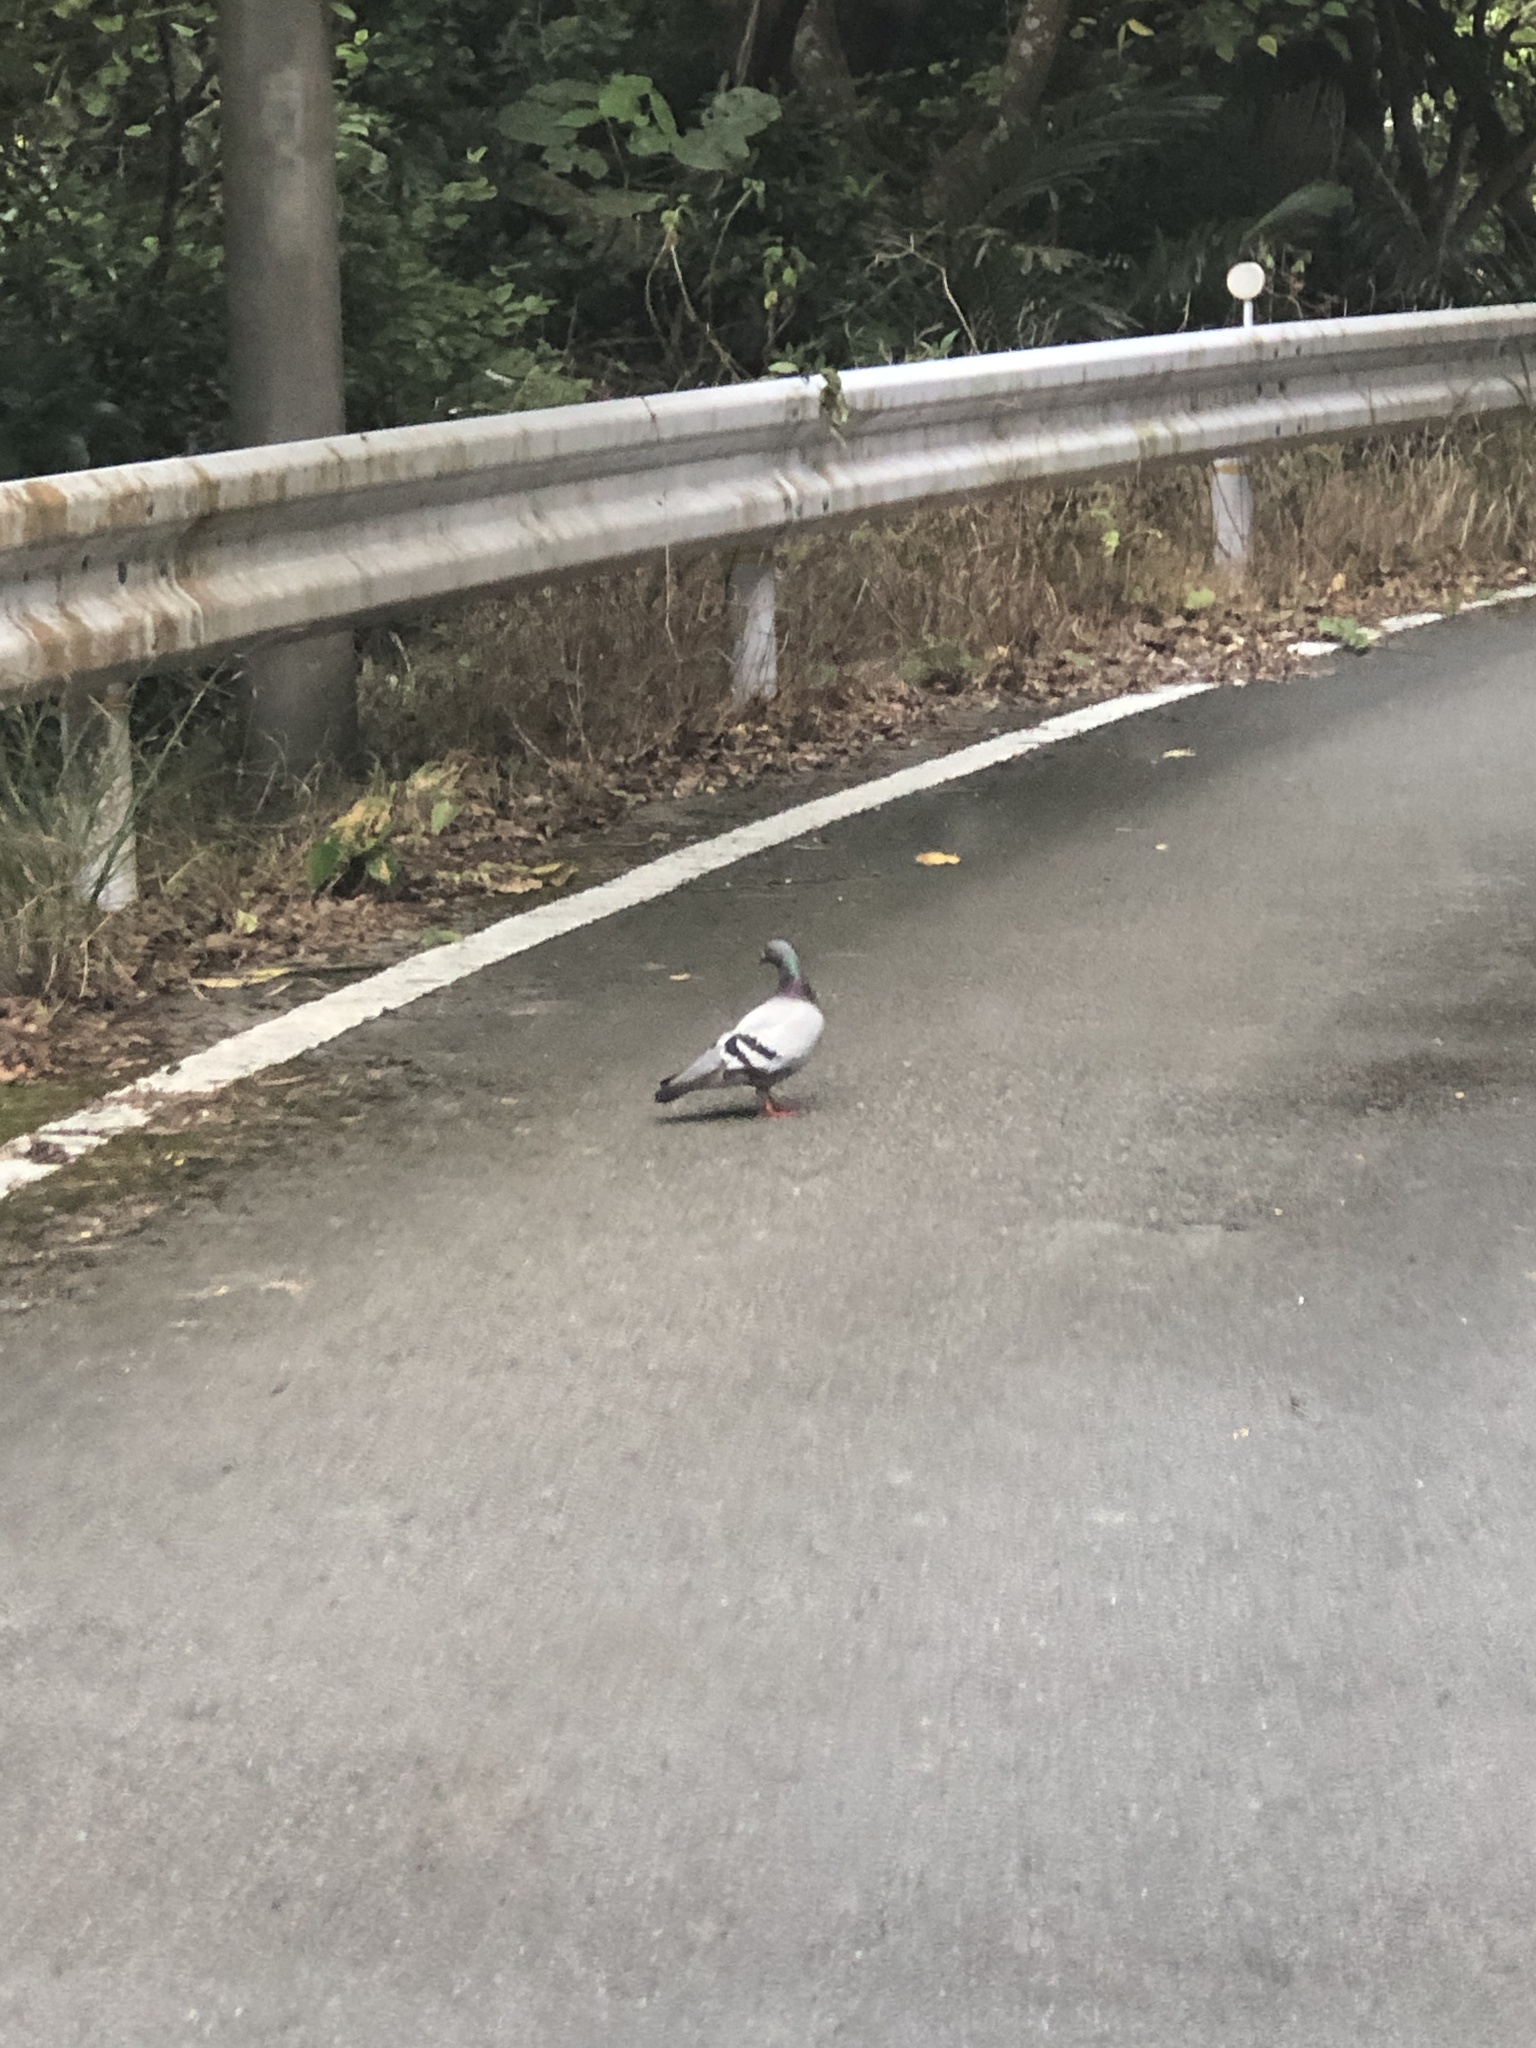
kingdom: Animalia
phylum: Chordata
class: Aves
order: Columbiformes
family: Columbidae
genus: Columba
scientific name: Columba livia
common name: Rock pigeon
